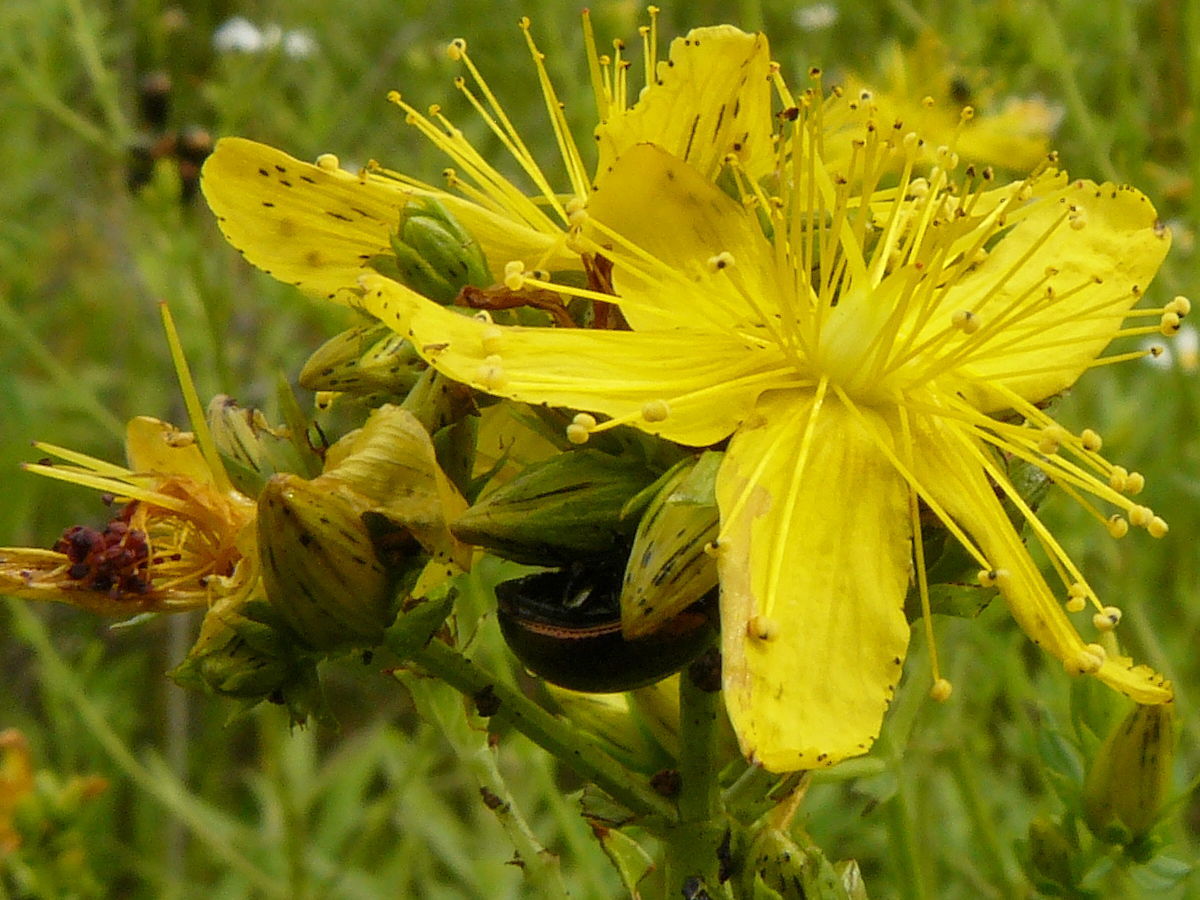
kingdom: Plantae
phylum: Tracheophyta
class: Magnoliopsida
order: Malpighiales
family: Hypericaceae
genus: Hypericum
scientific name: Hypericum perforatum
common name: Common st. johnswort
